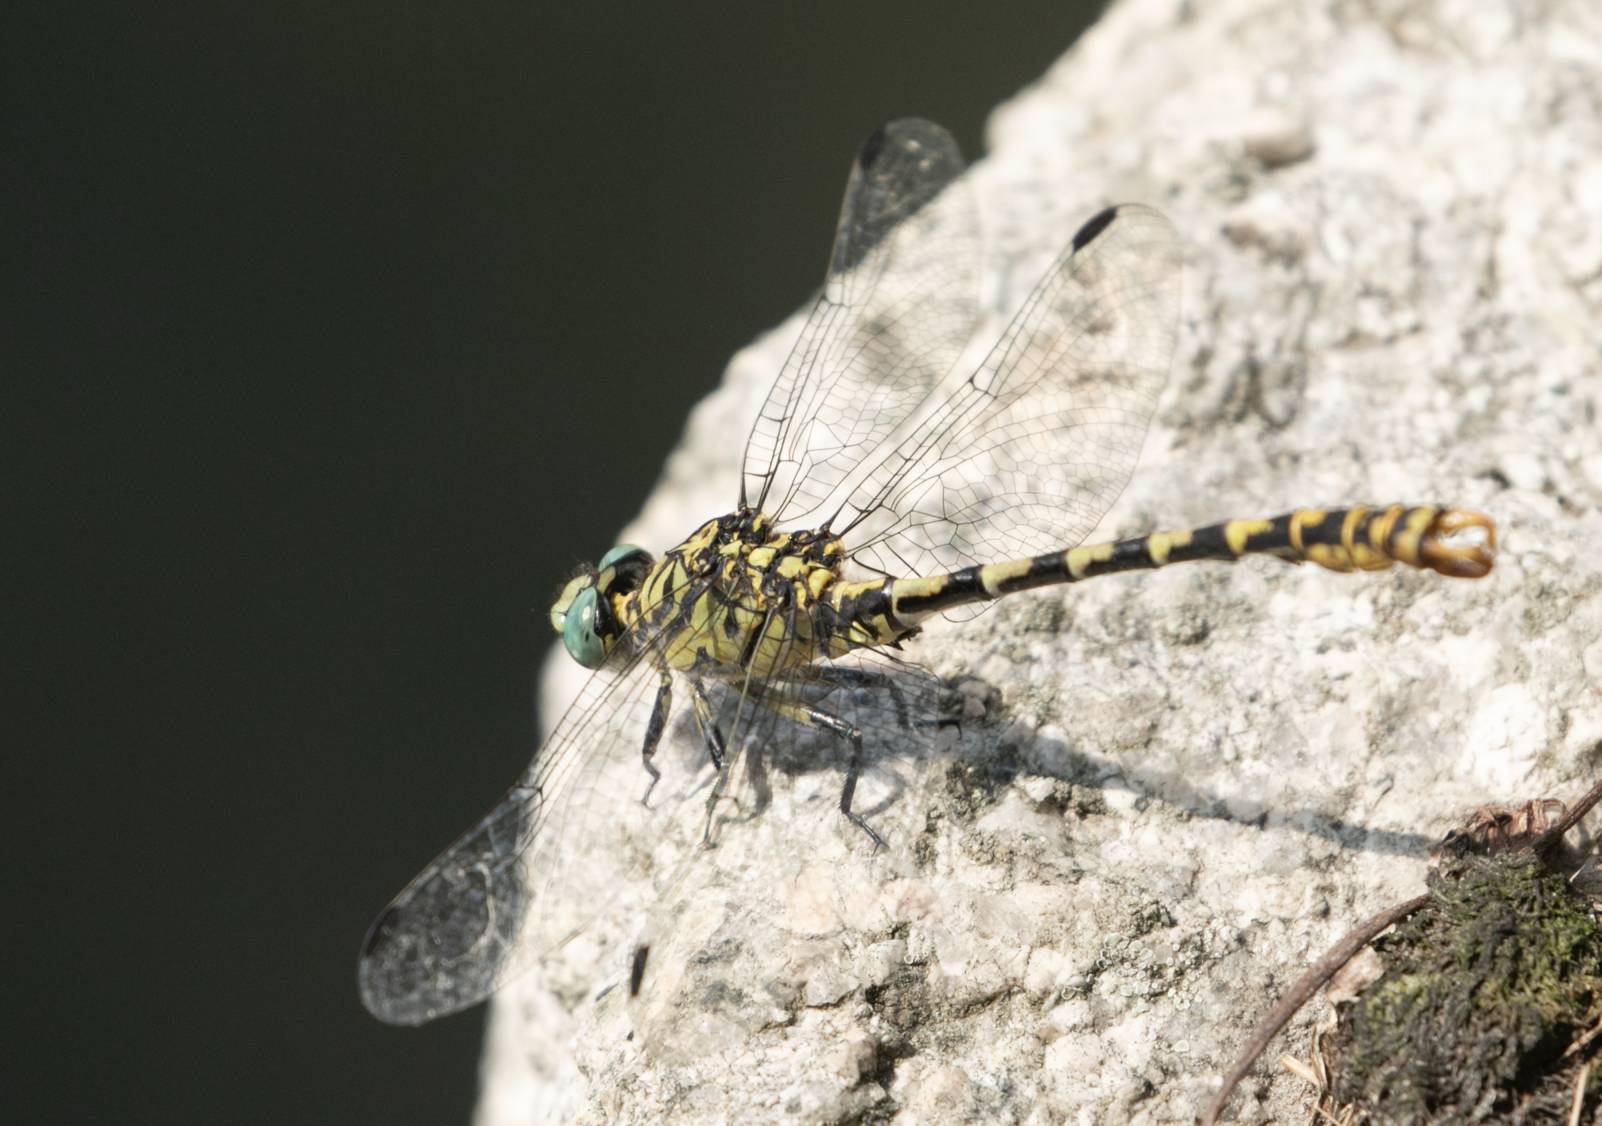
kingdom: Animalia
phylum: Arthropoda
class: Insecta
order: Odonata
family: Gomphidae
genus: Onychogomphus
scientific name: Onychogomphus forcipatus
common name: Small pincertail
